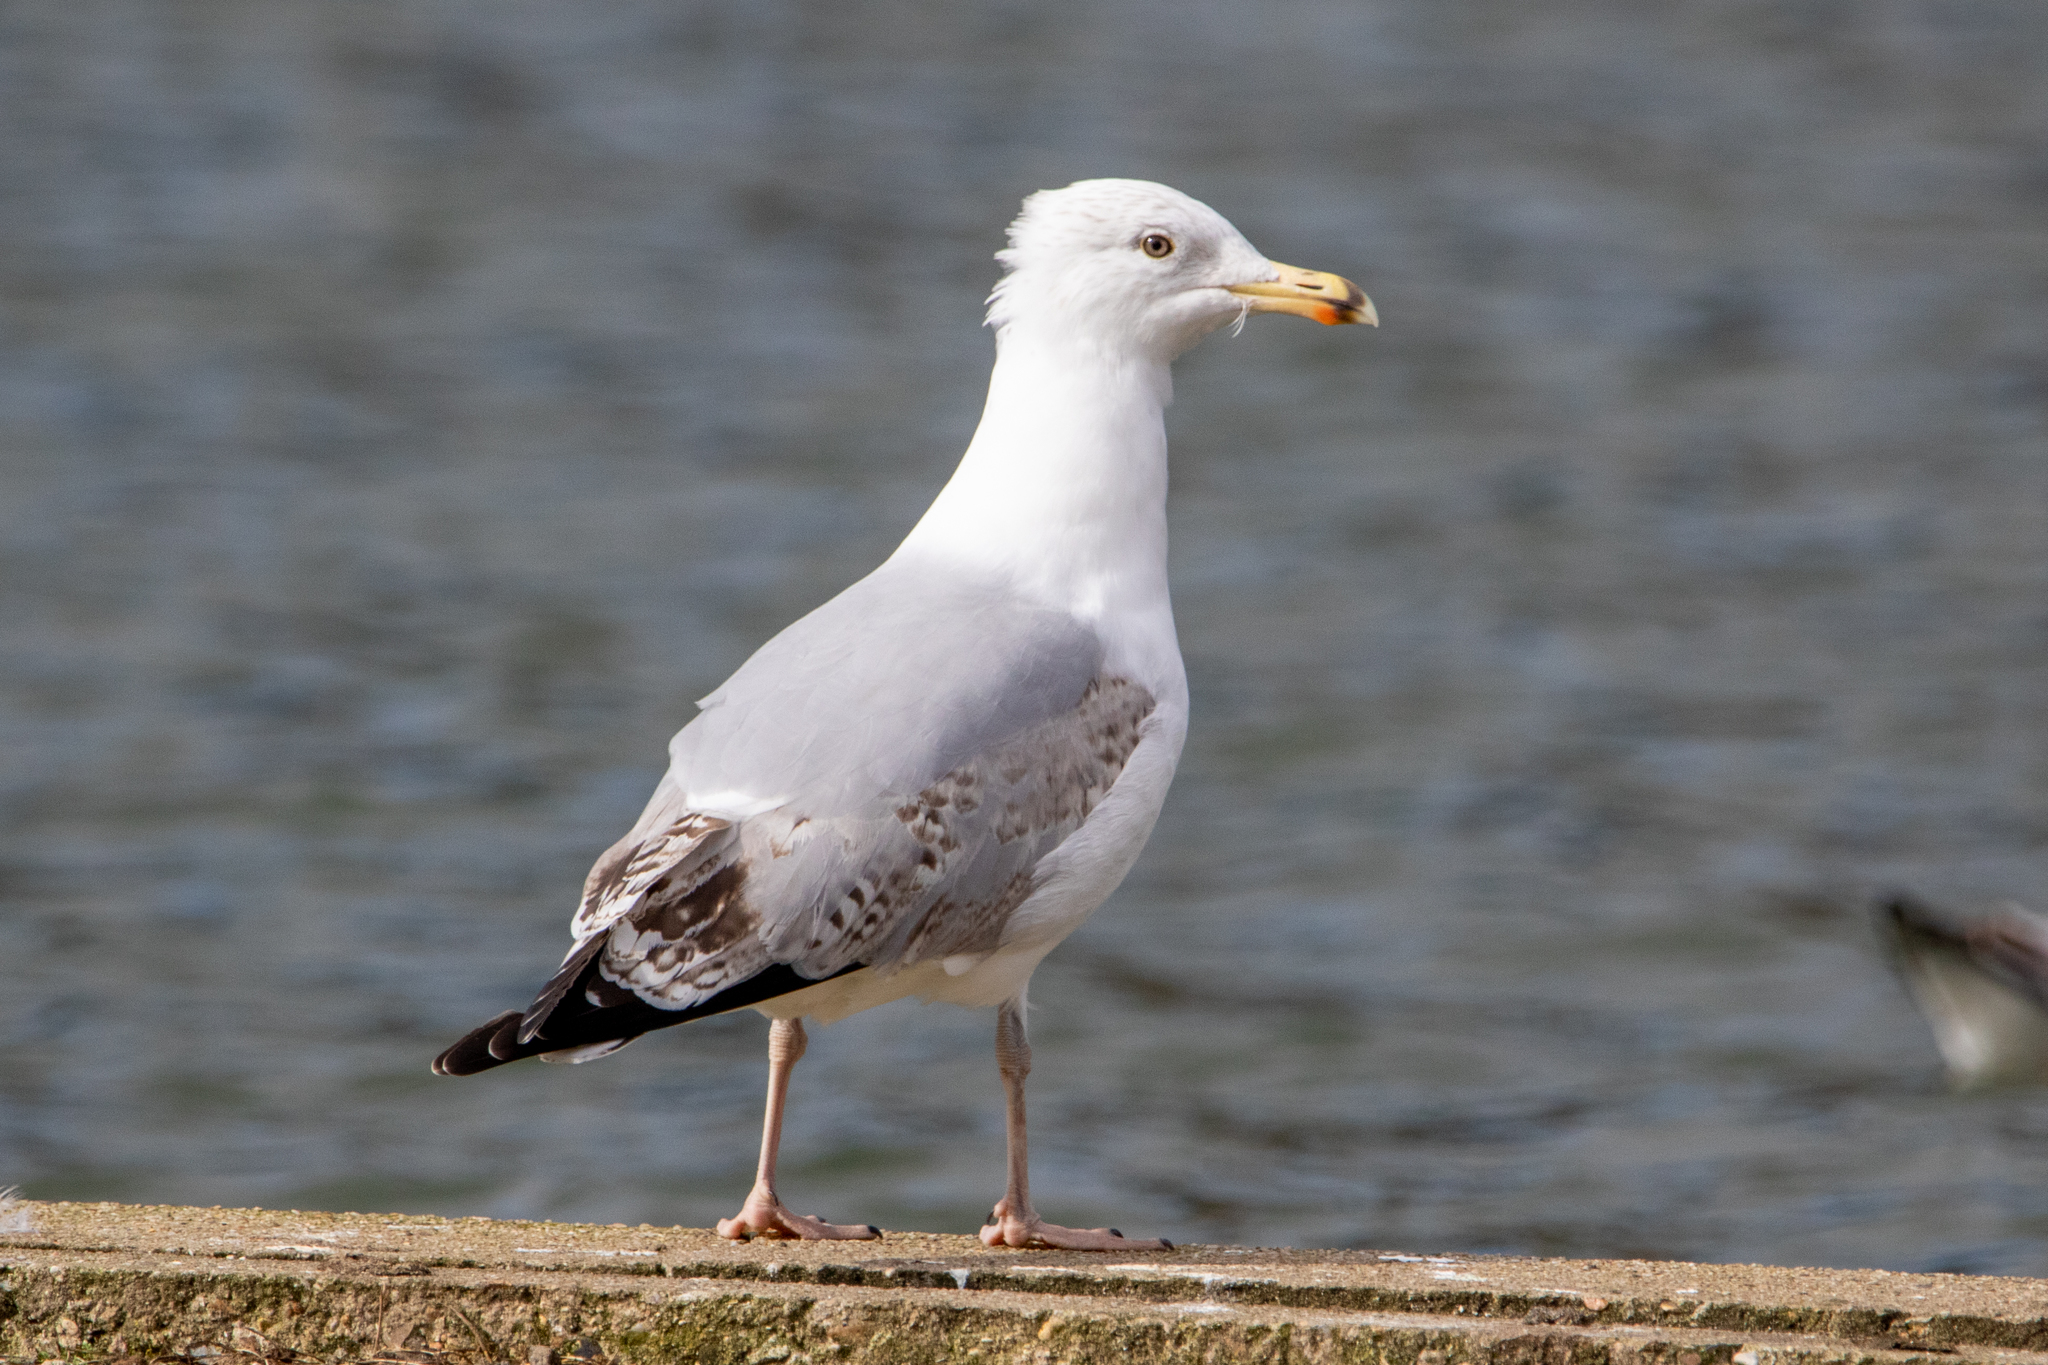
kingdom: Animalia
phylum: Chordata
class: Aves
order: Charadriiformes
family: Laridae
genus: Larus
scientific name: Larus argentatus
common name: Herring gull
